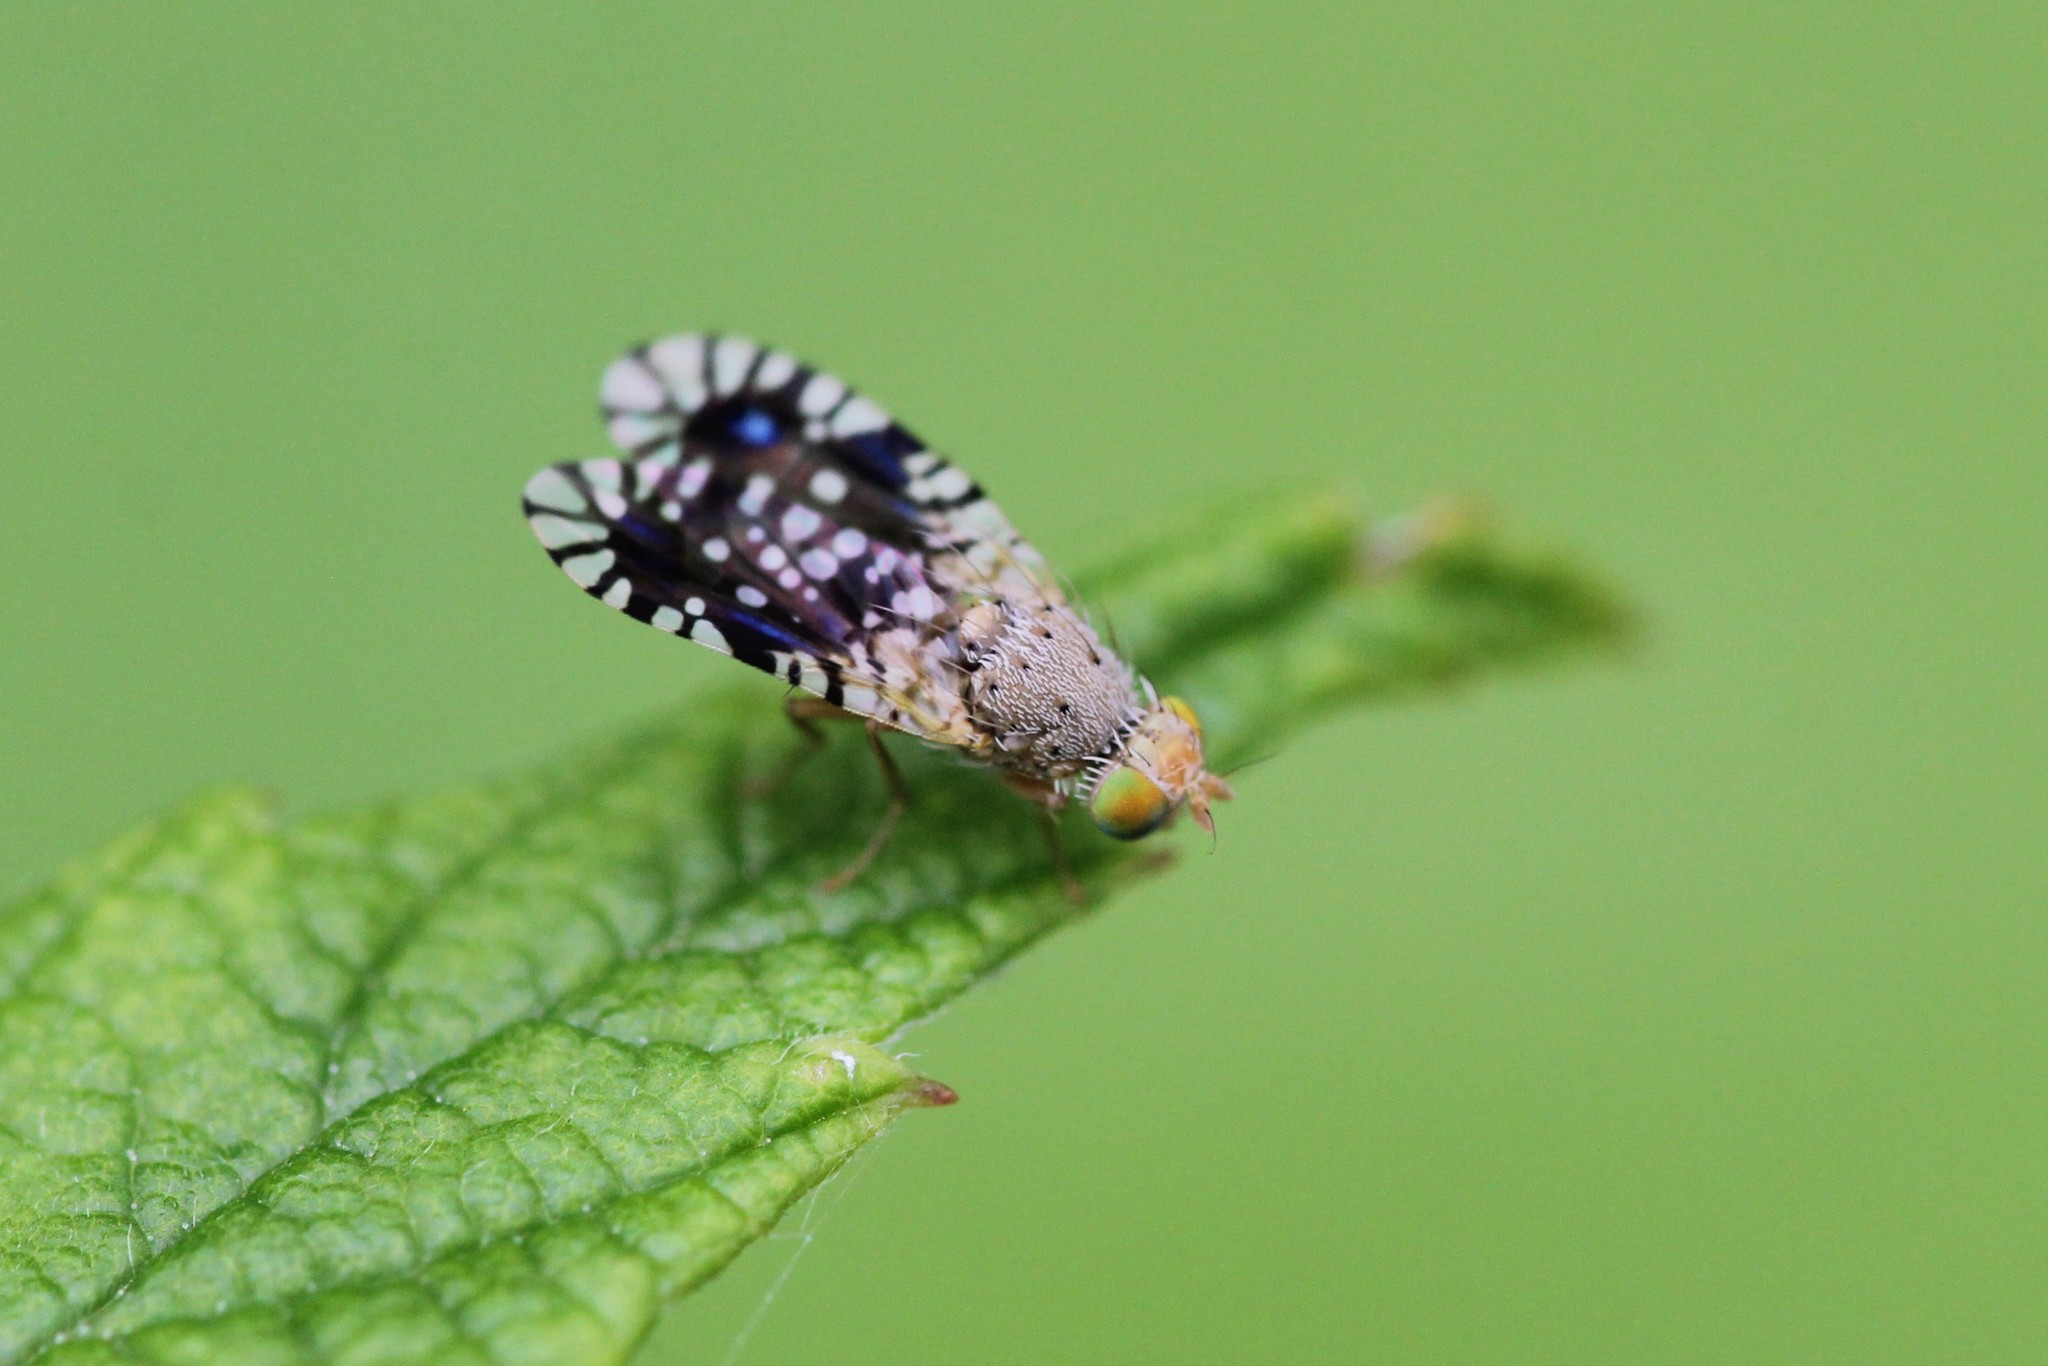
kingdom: Animalia
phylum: Arthropoda
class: Insecta
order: Diptera
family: Tephritidae
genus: Euaresta
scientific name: Euaresta bella
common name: Common ragweed fruit fly
